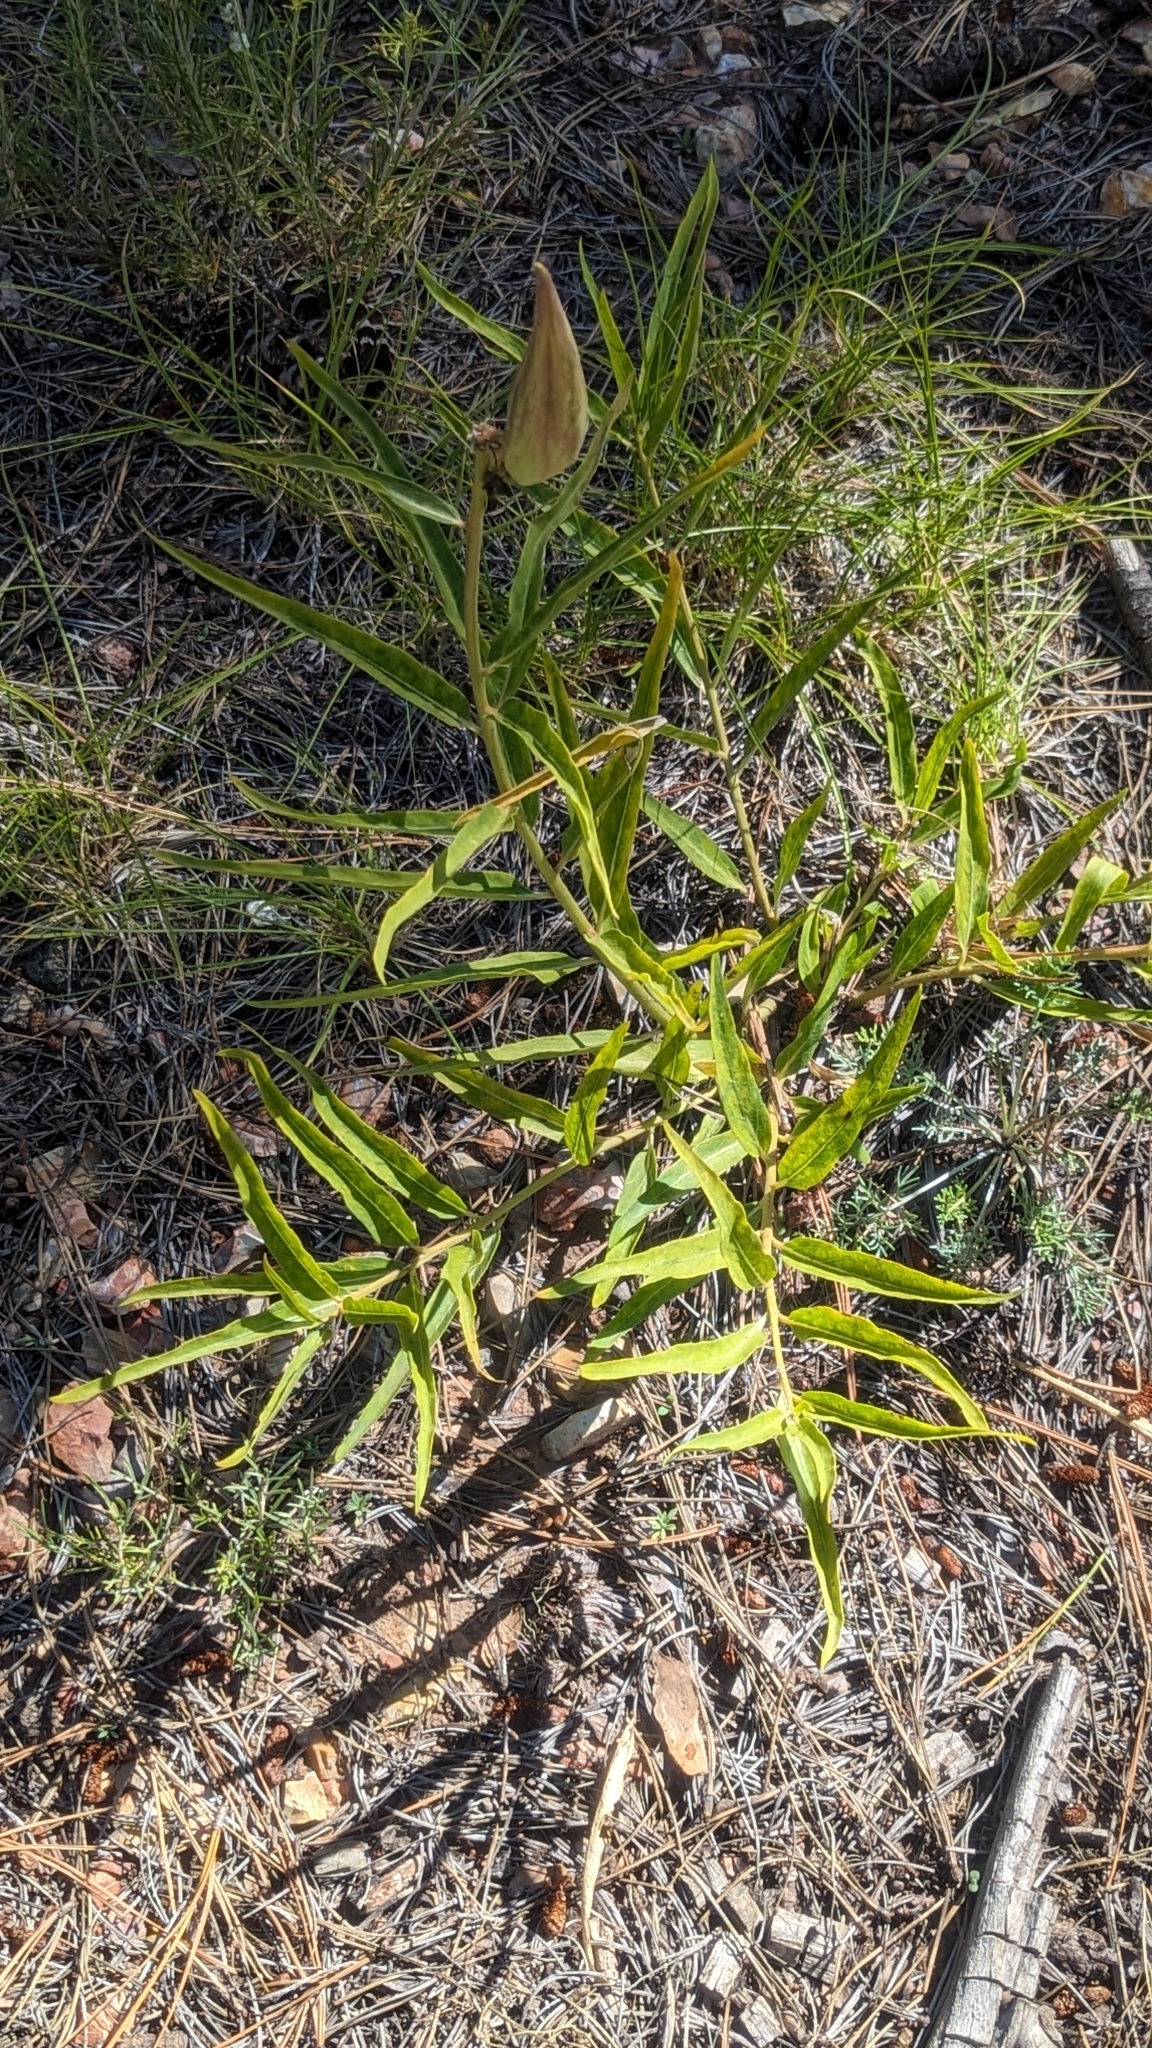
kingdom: Plantae
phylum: Tracheophyta
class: Magnoliopsida
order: Gentianales
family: Apocynaceae
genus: Asclepias
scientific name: Asclepias asperula
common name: Antelope horns
